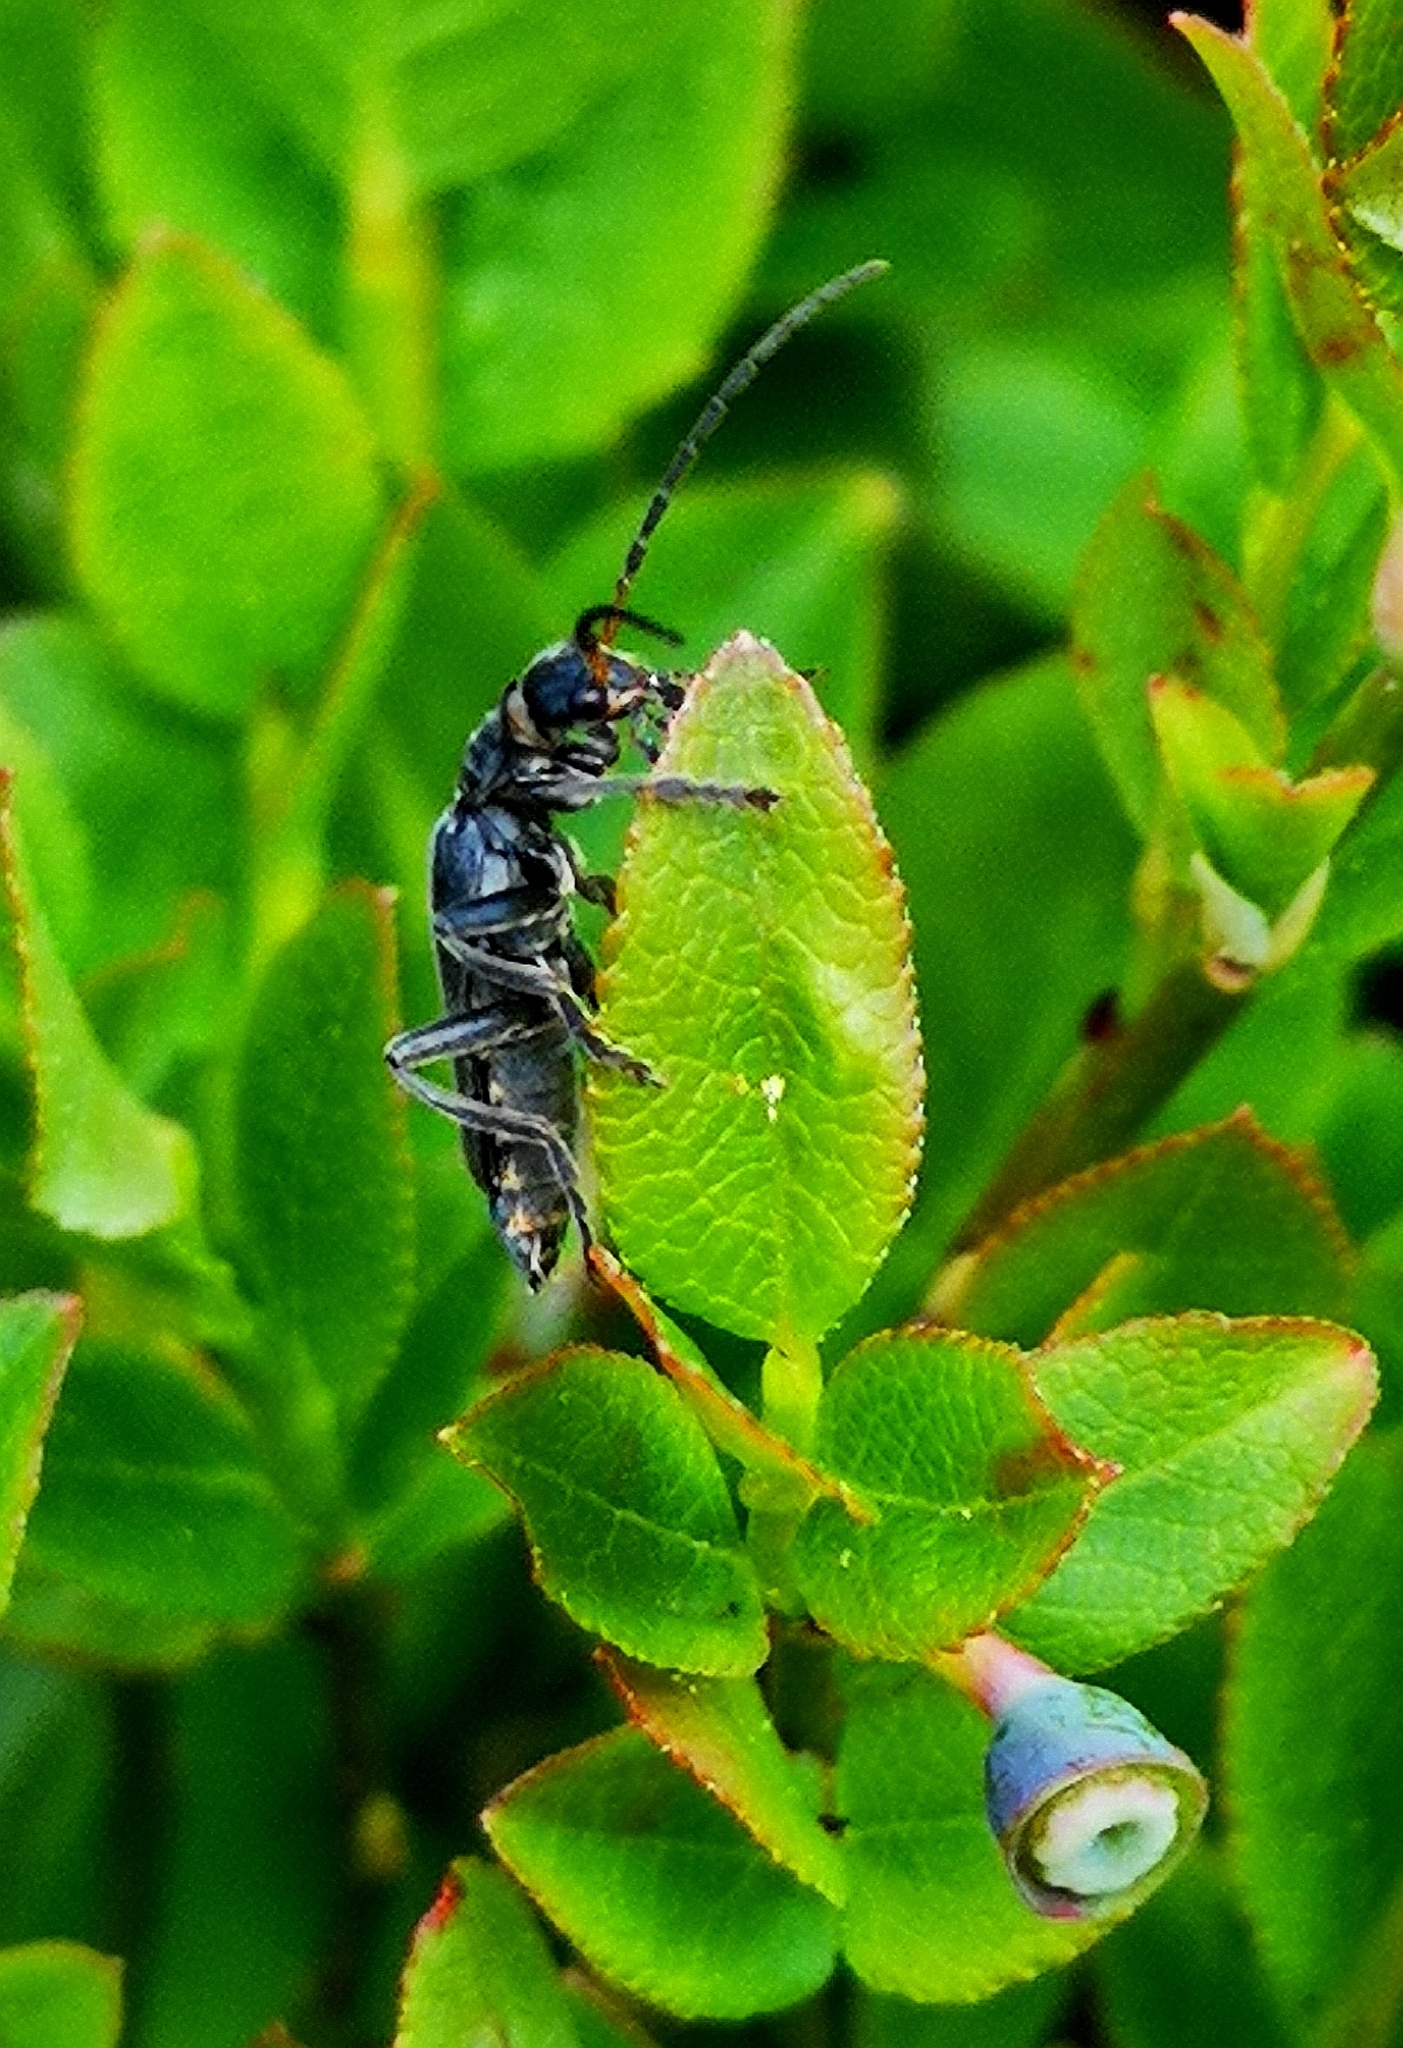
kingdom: Animalia
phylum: Arthropoda
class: Insecta
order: Coleoptera
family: Cantharidae
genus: Cantharis
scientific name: Cantharis tristis
